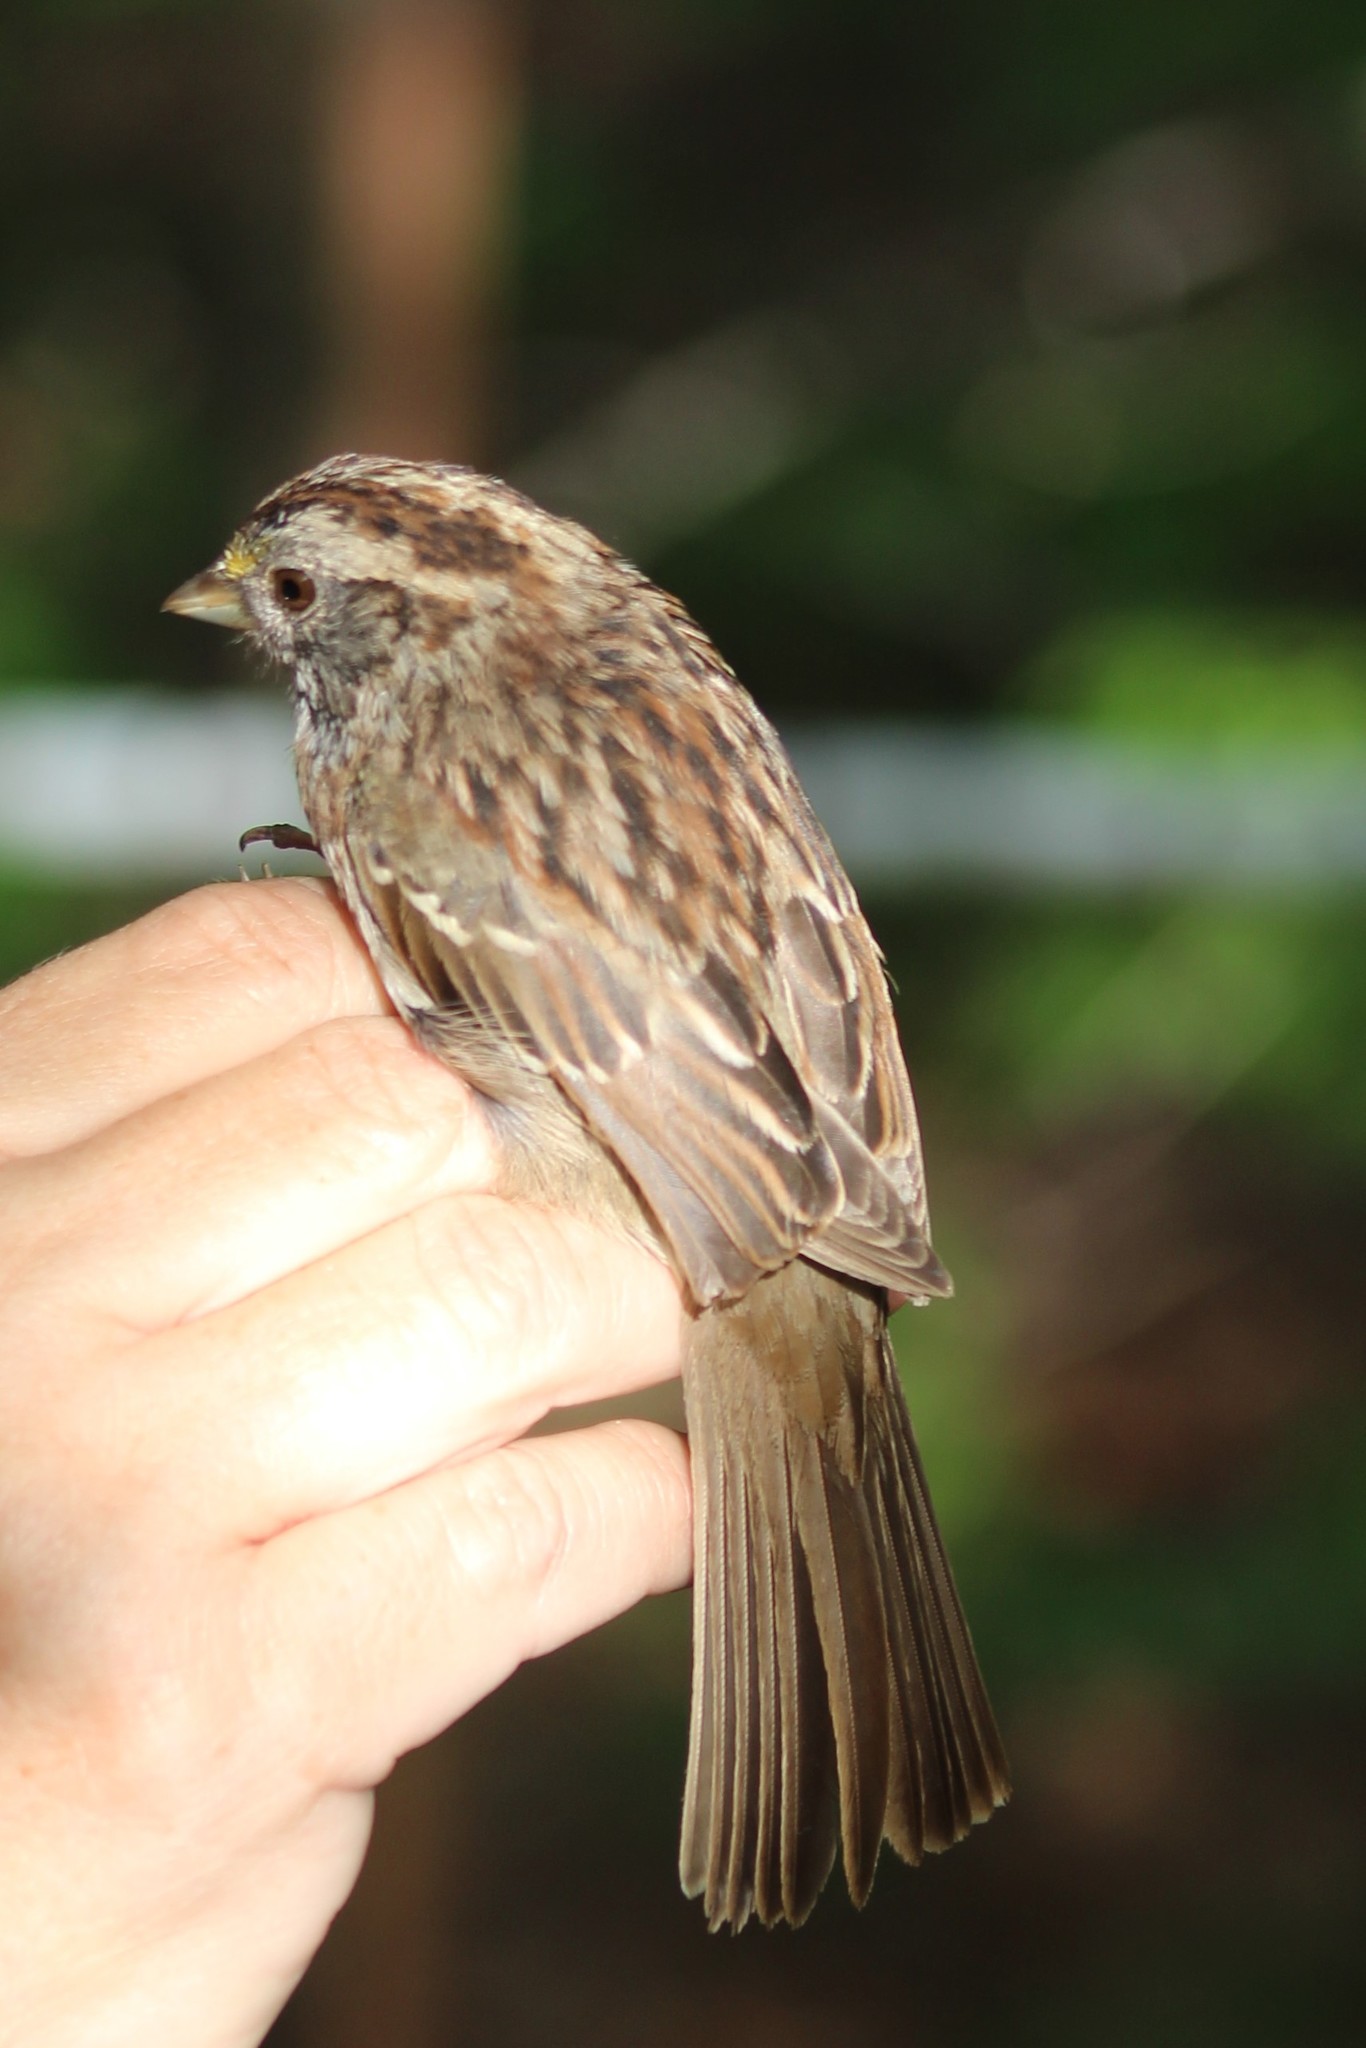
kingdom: Animalia
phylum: Chordata
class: Aves
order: Passeriformes
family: Passerellidae
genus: Zonotrichia
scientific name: Zonotrichia albicollis
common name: White-throated sparrow
